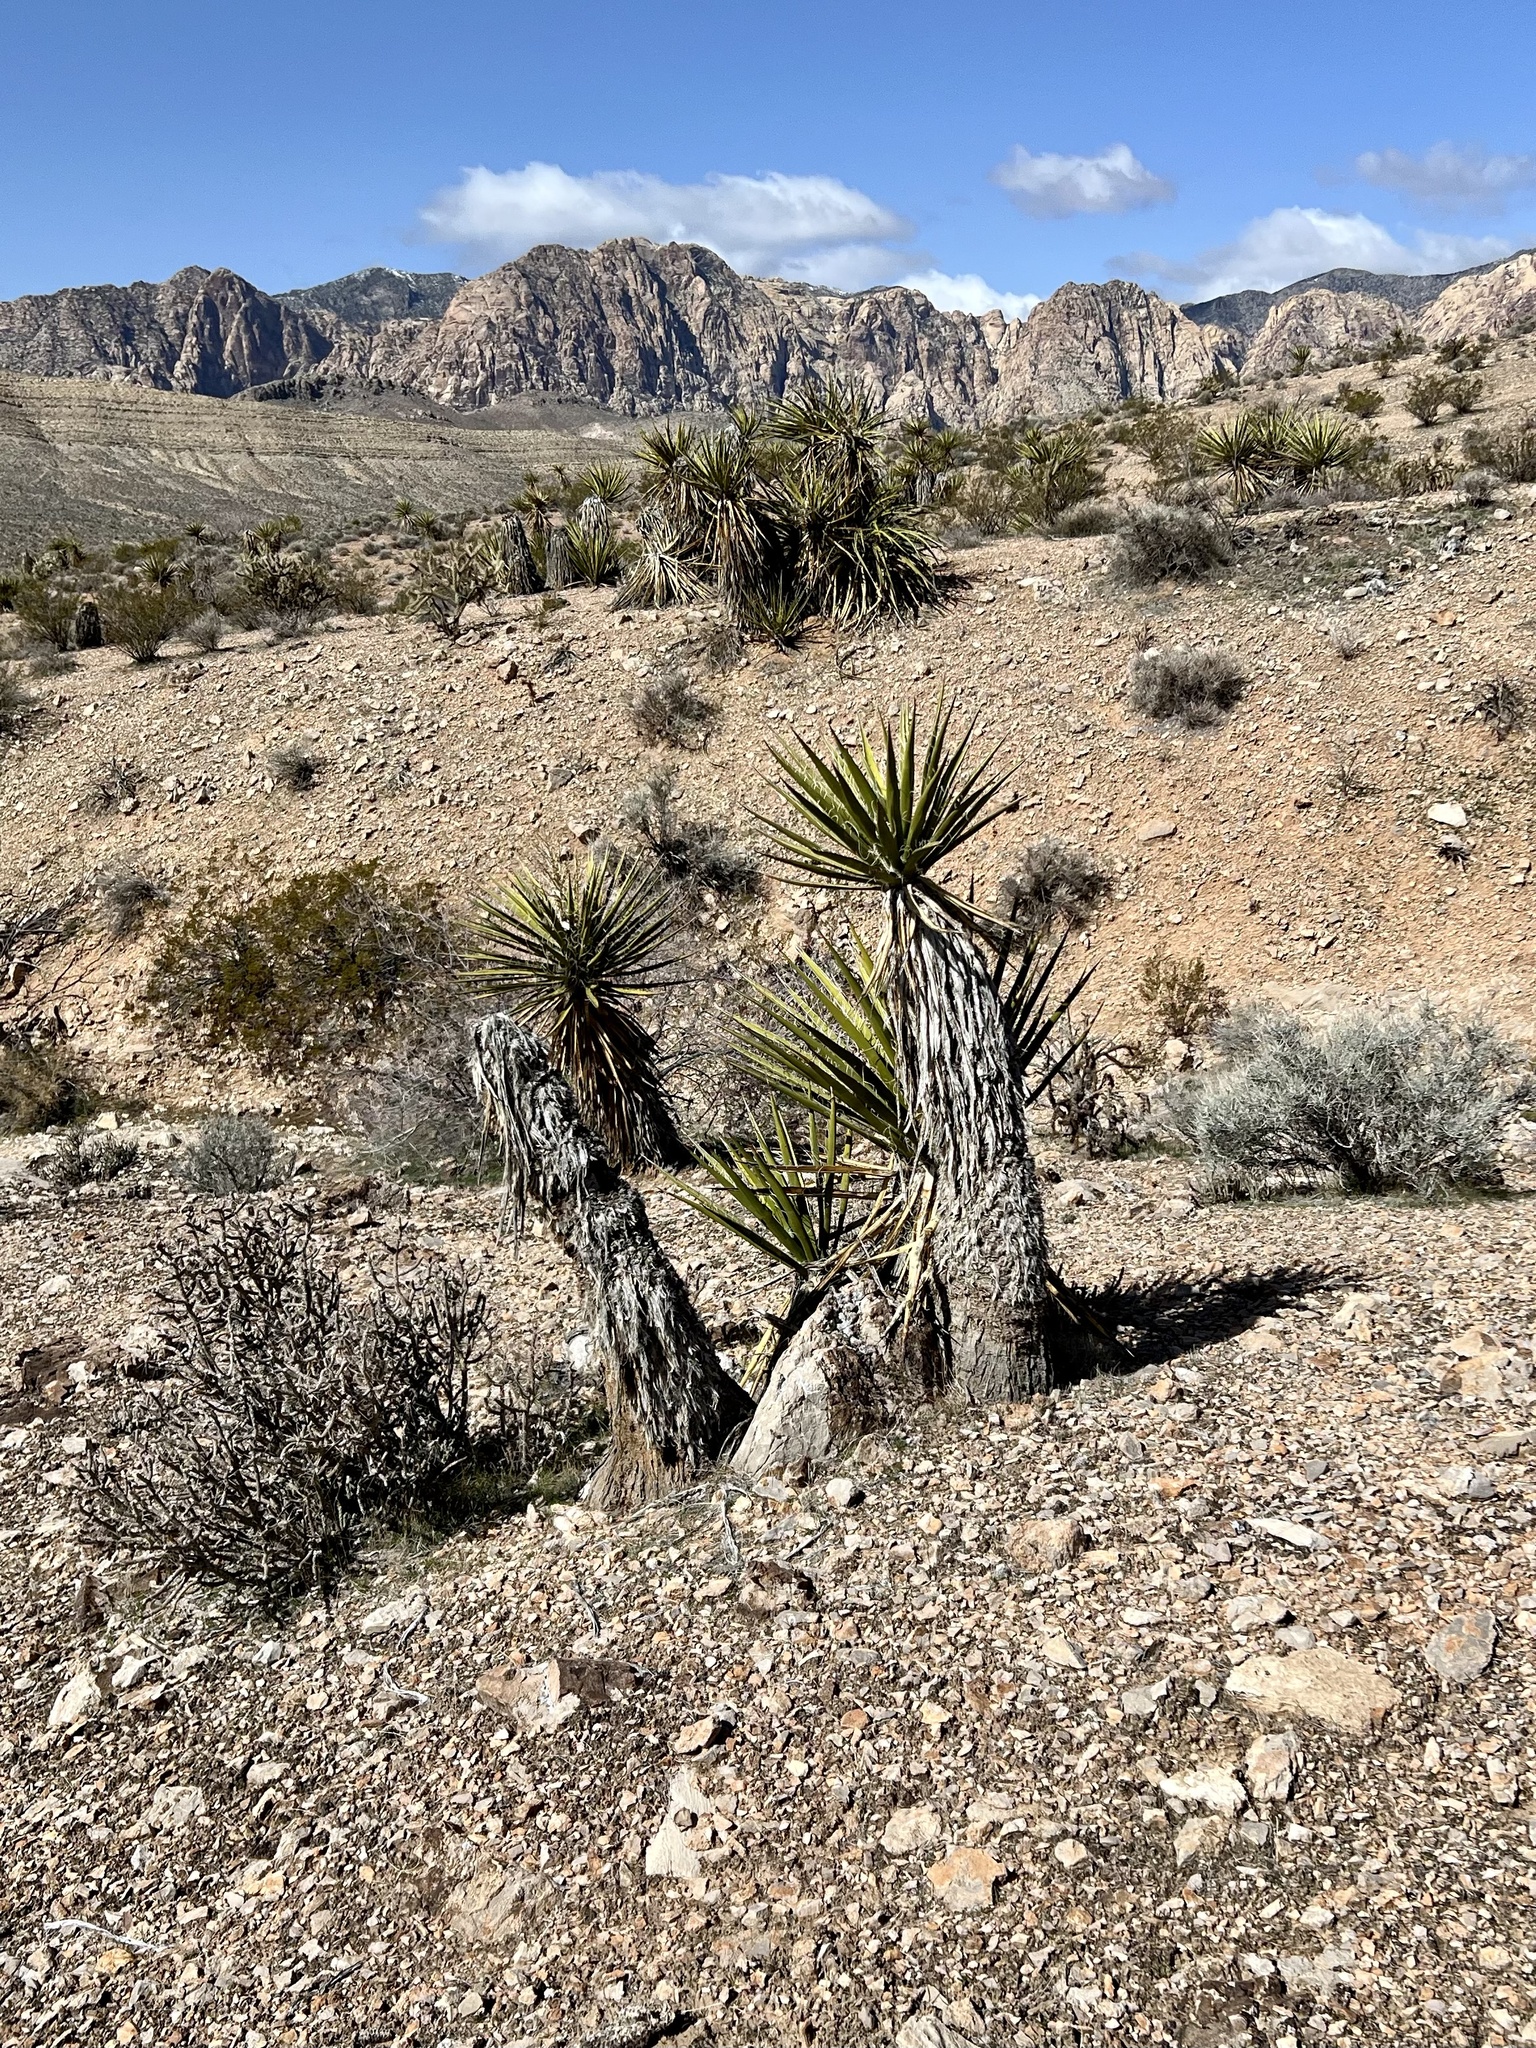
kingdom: Plantae
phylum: Tracheophyta
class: Liliopsida
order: Asparagales
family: Asparagaceae
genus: Yucca
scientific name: Yucca schidigera
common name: Mojave yucca
